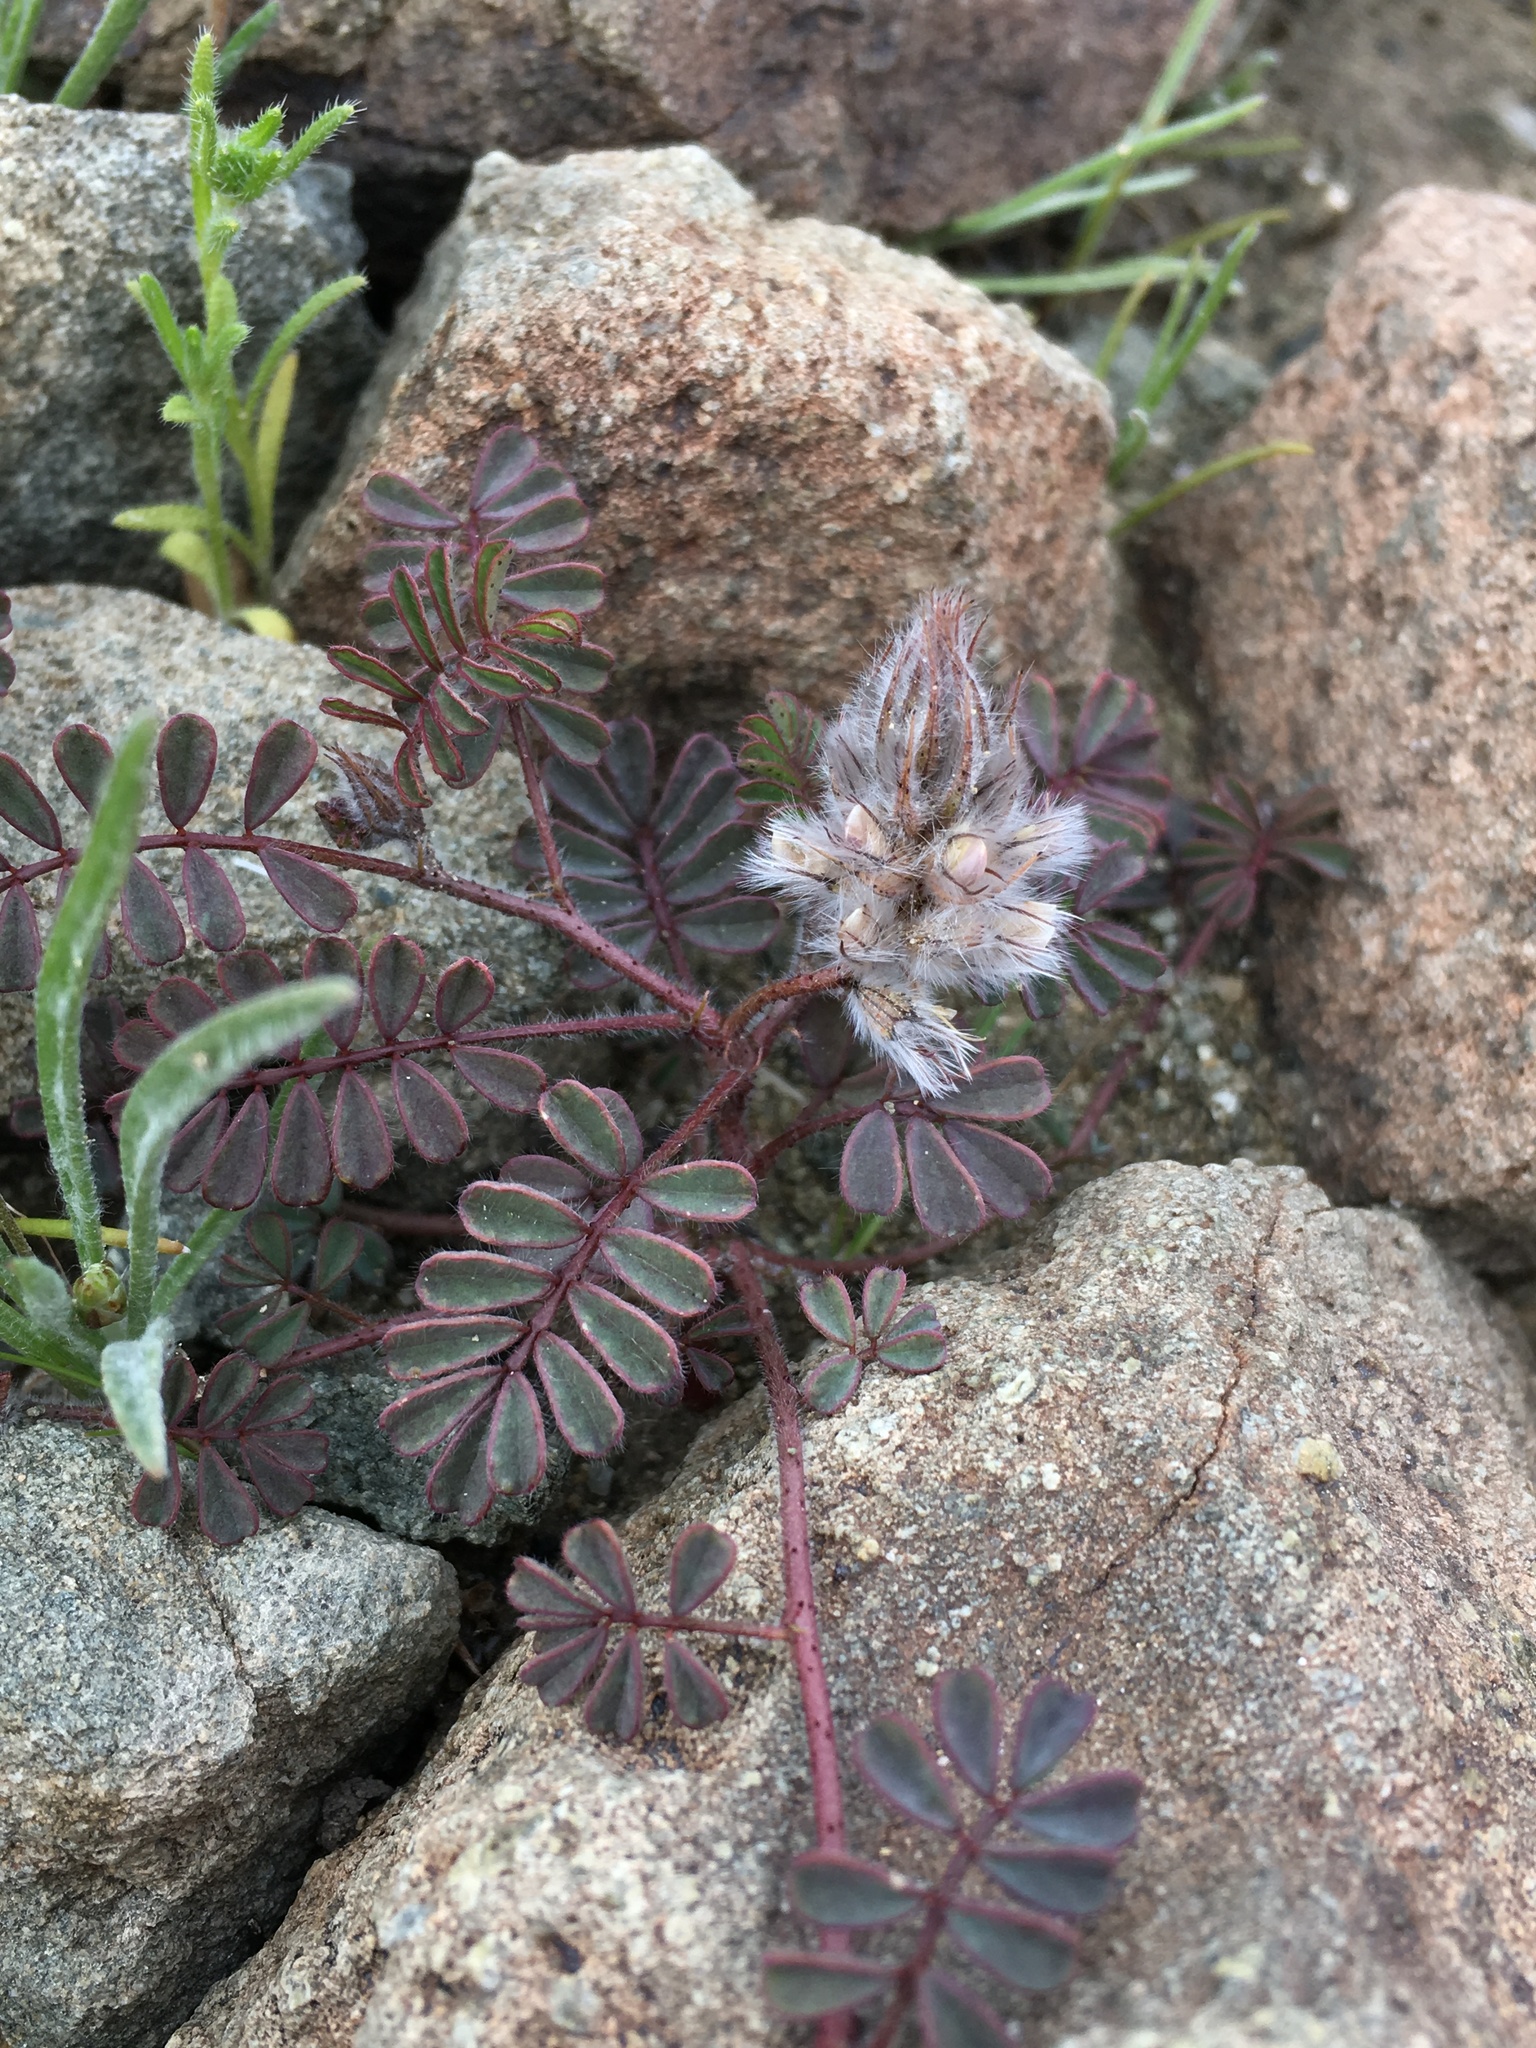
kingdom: Plantae
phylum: Tracheophyta
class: Magnoliopsida
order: Fabales
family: Fabaceae
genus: Dalea
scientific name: Dalea mollissima
